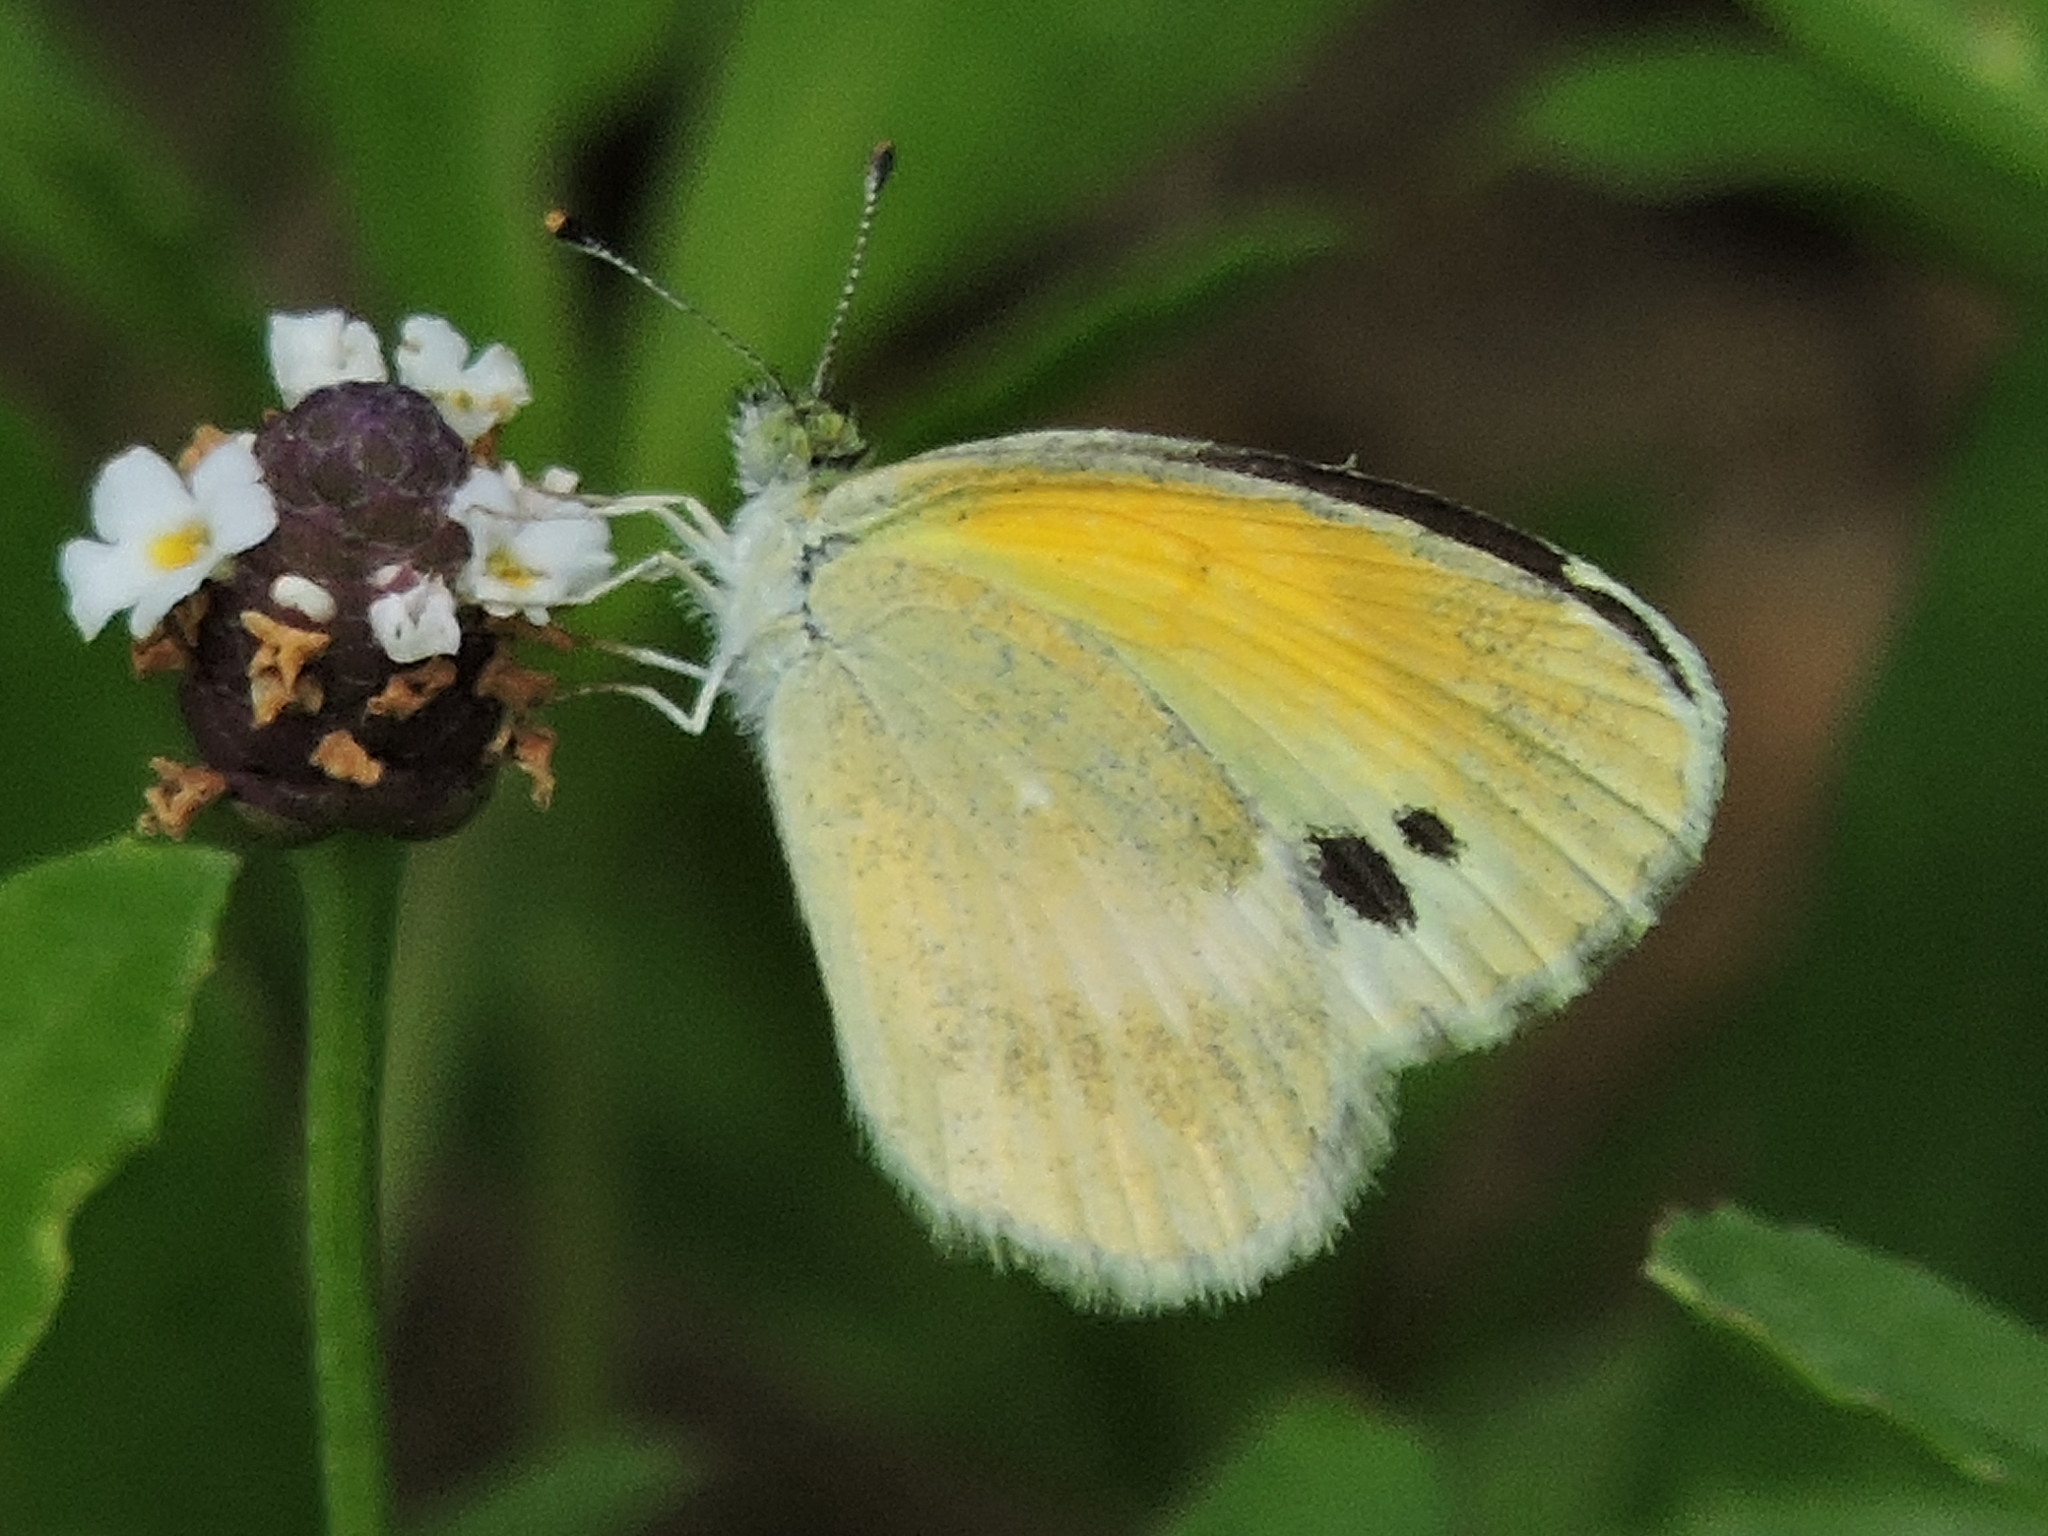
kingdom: Animalia
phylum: Arthropoda
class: Insecta
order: Lepidoptera
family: Pieridae
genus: Nathalis
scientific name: Nathalis iole
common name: Dainty sulphur
